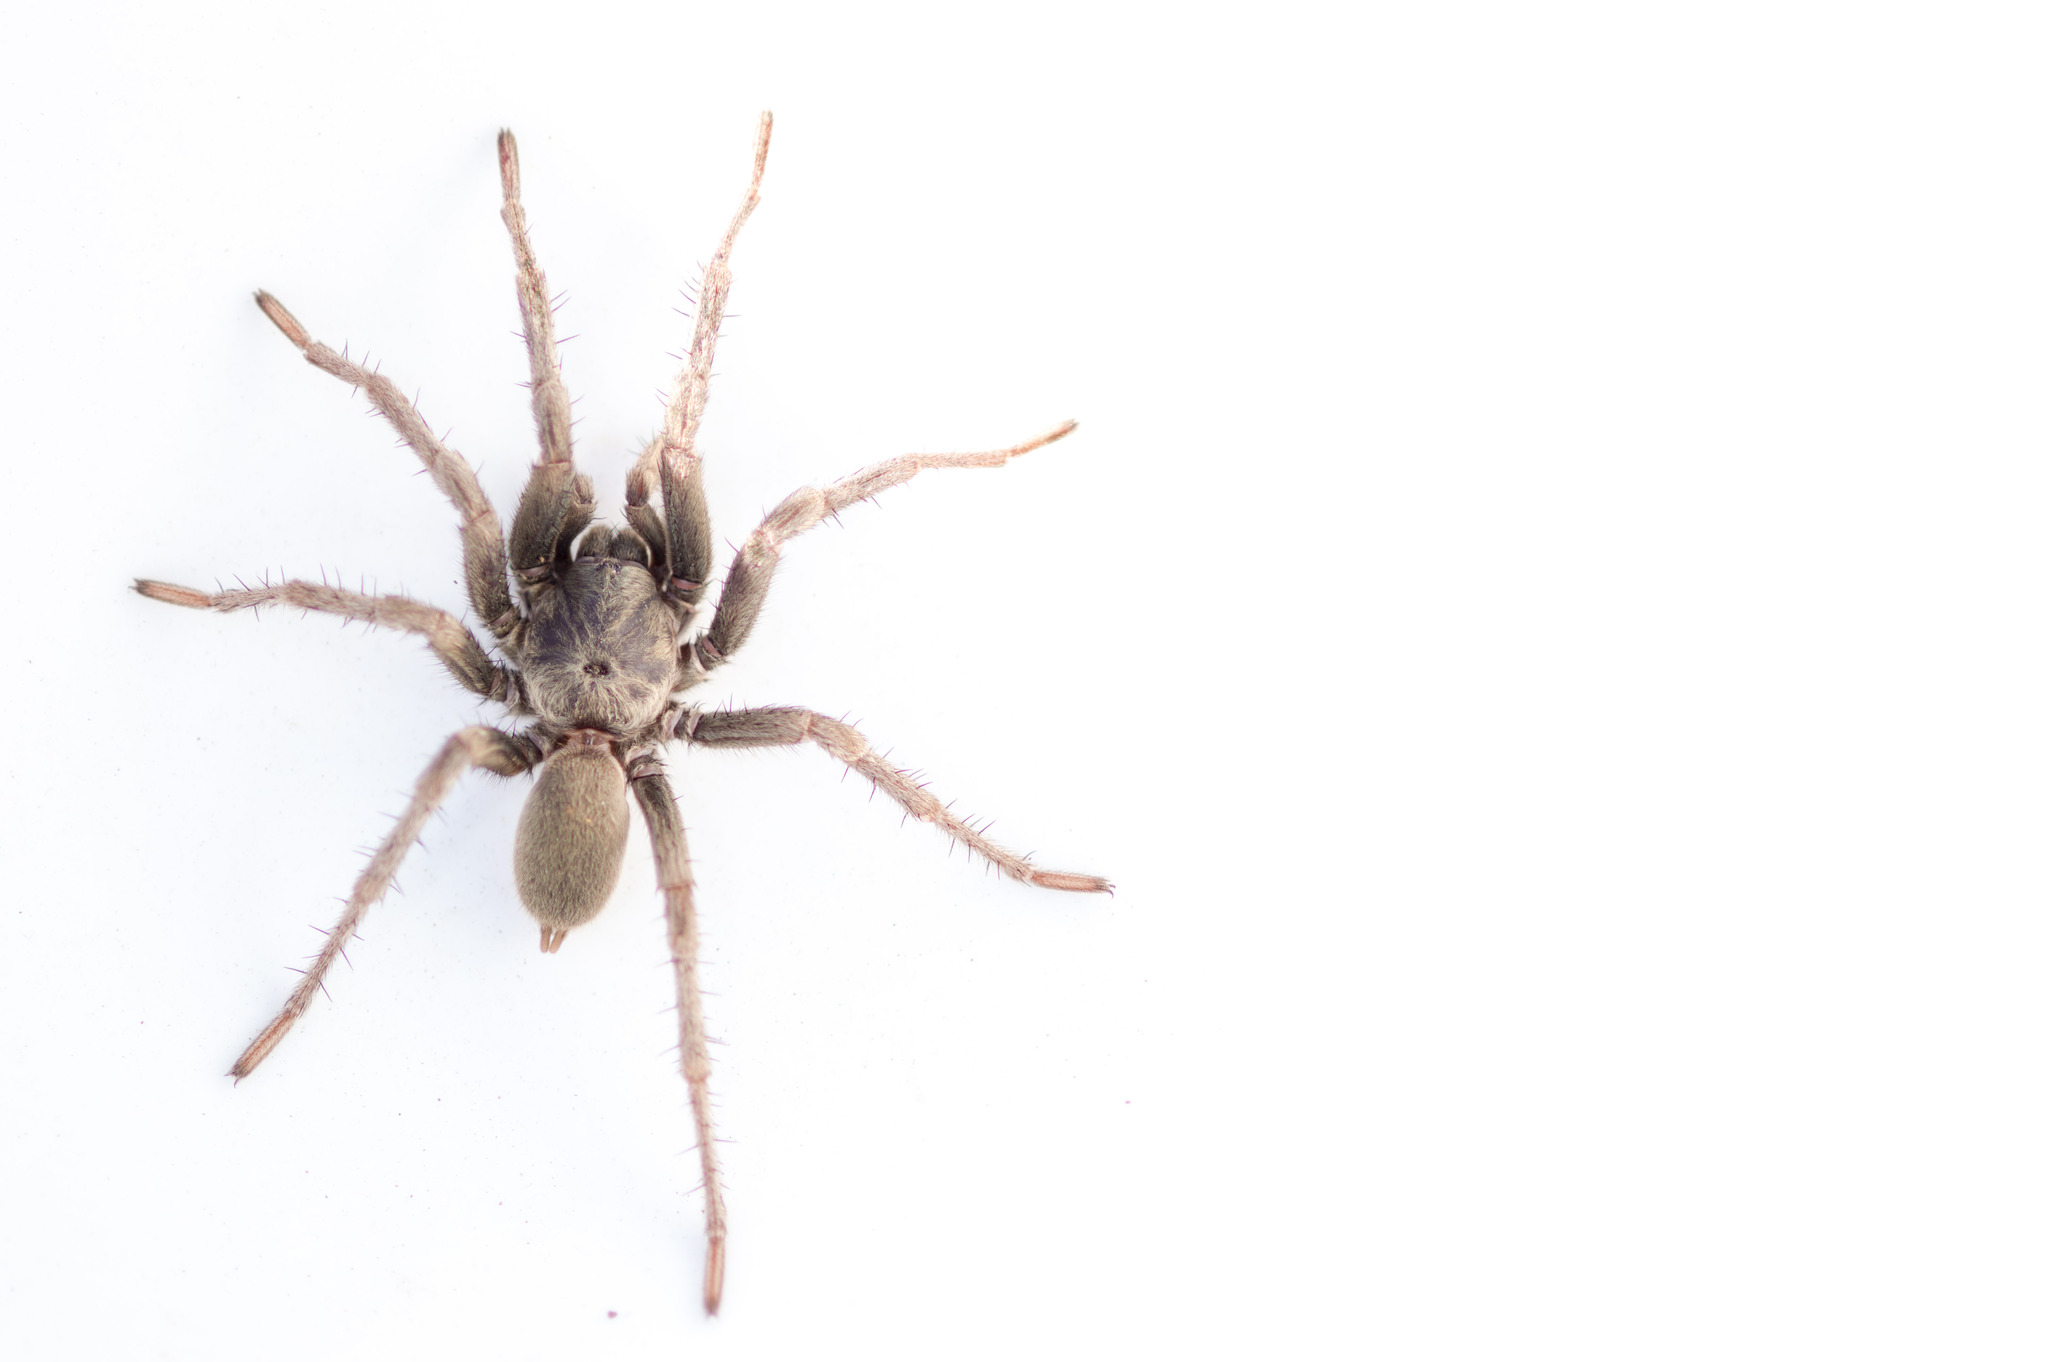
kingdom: Animalia
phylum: Arthropoda
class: Arachnida
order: Araneae
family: Nemesiidae
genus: Calisoga
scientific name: Calisoga longitarsis
